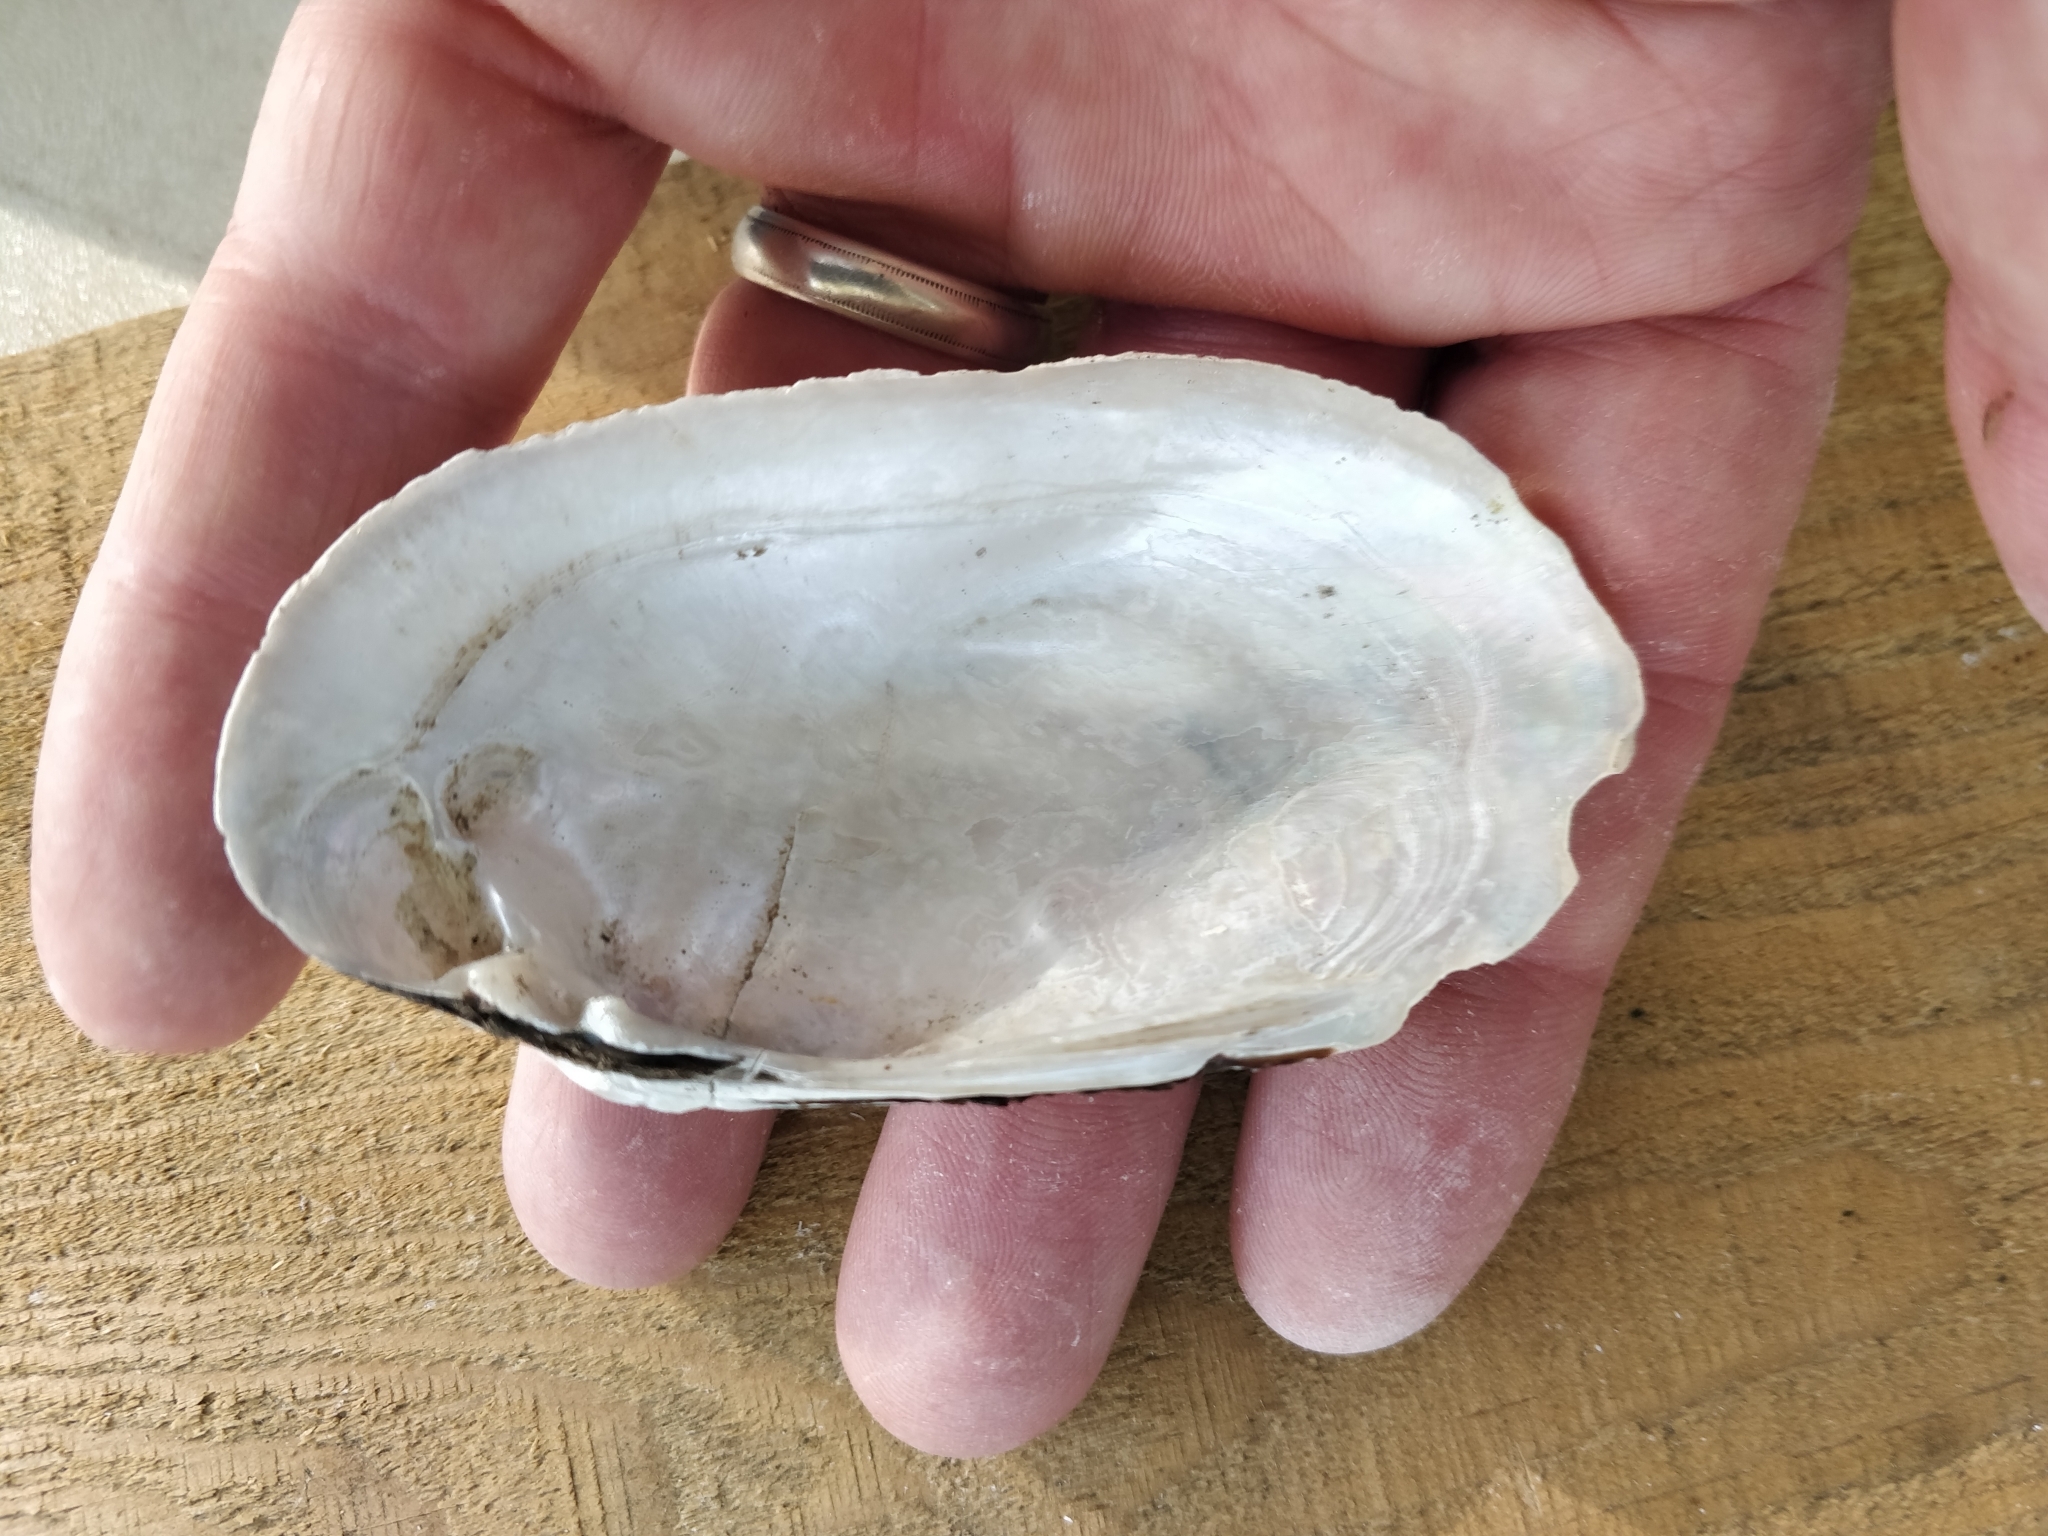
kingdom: Animalia
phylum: Mollusca
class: Bivalvia
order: Unionida
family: Unionidae
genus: Lampsilis
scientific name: Lampsilis siliquoidea
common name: Fatmucket
